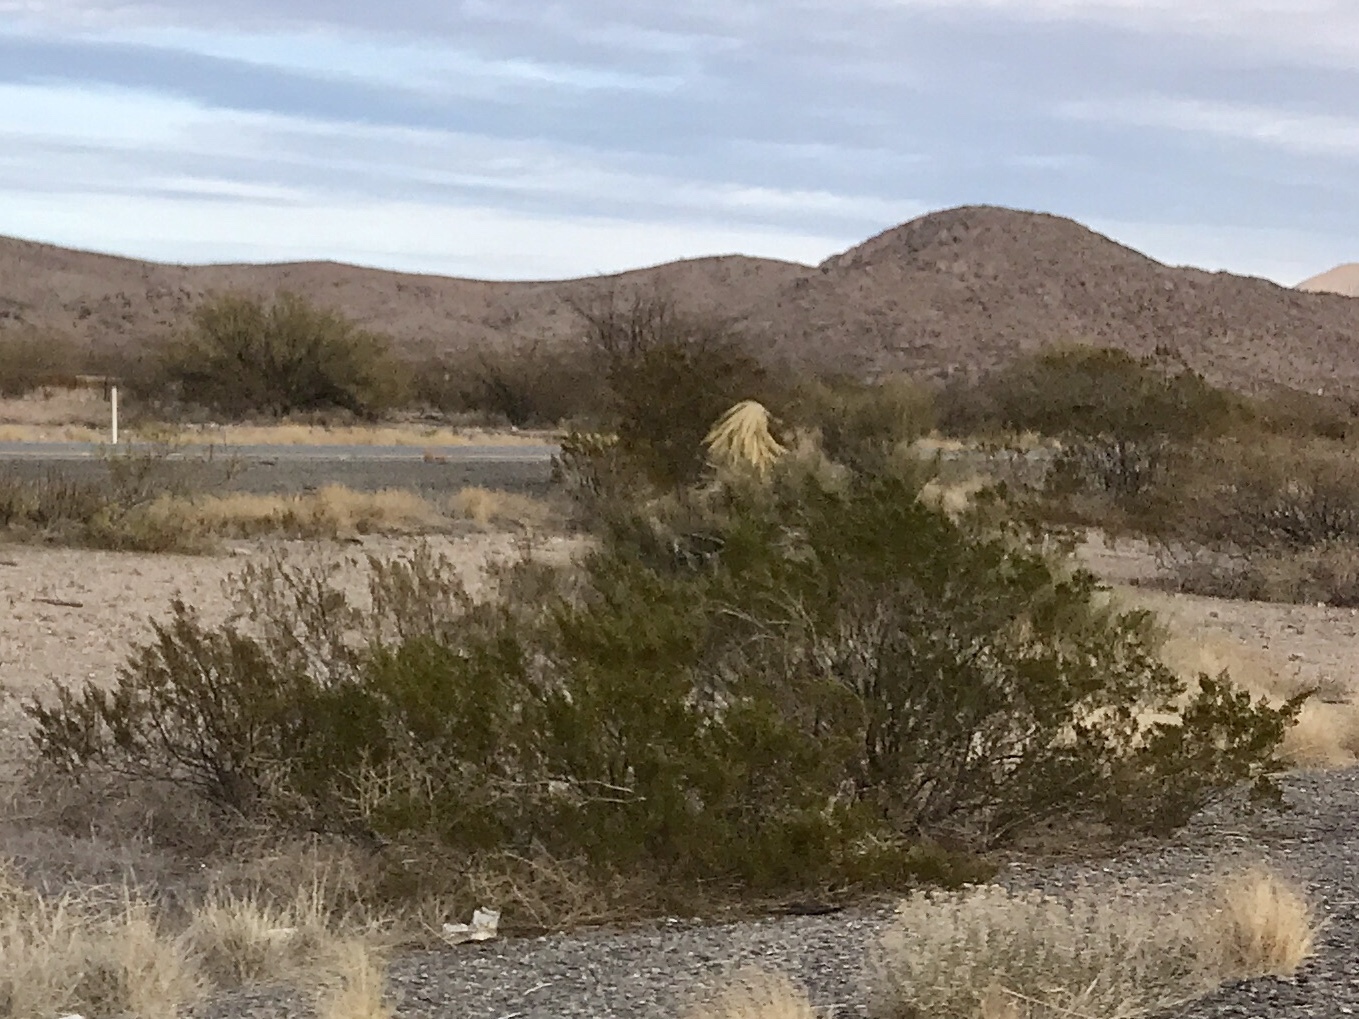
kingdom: Plantae
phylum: Tracheophyta
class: Magnoliopsida
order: Zygophyllales
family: Zygophyllaceae
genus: Larrea
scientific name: Larrea tridentata
